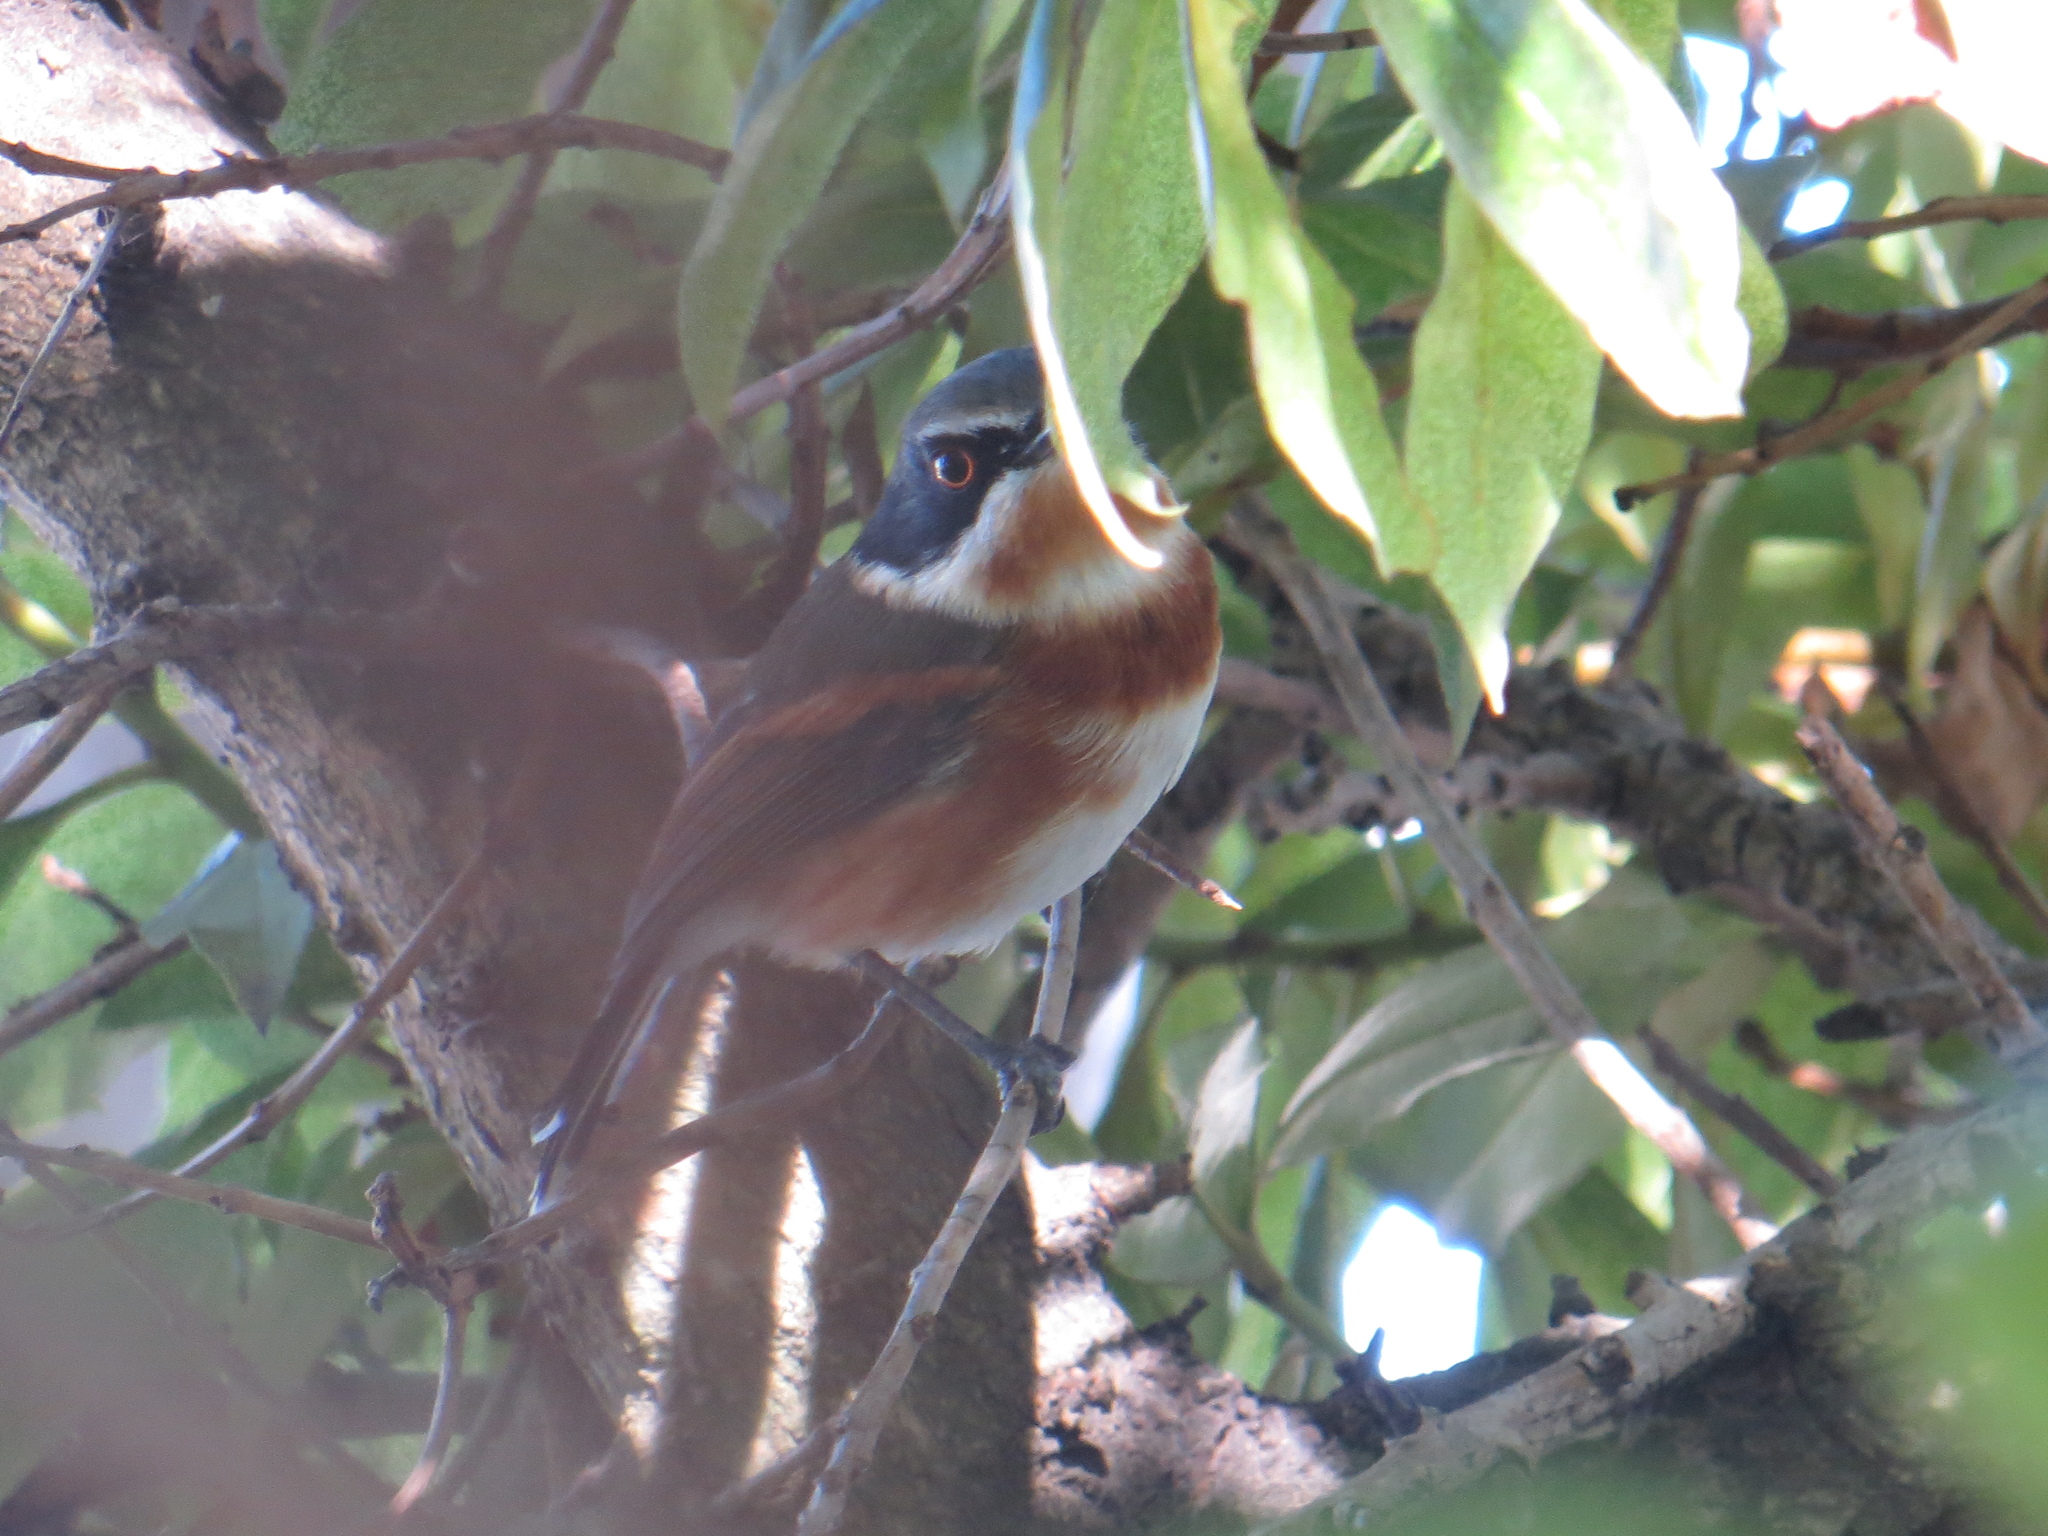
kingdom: Animalia
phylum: Chordata
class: Aves
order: Passeriformes
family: Platysteiridae
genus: Batis
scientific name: Batis capensis
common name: Cape batis
